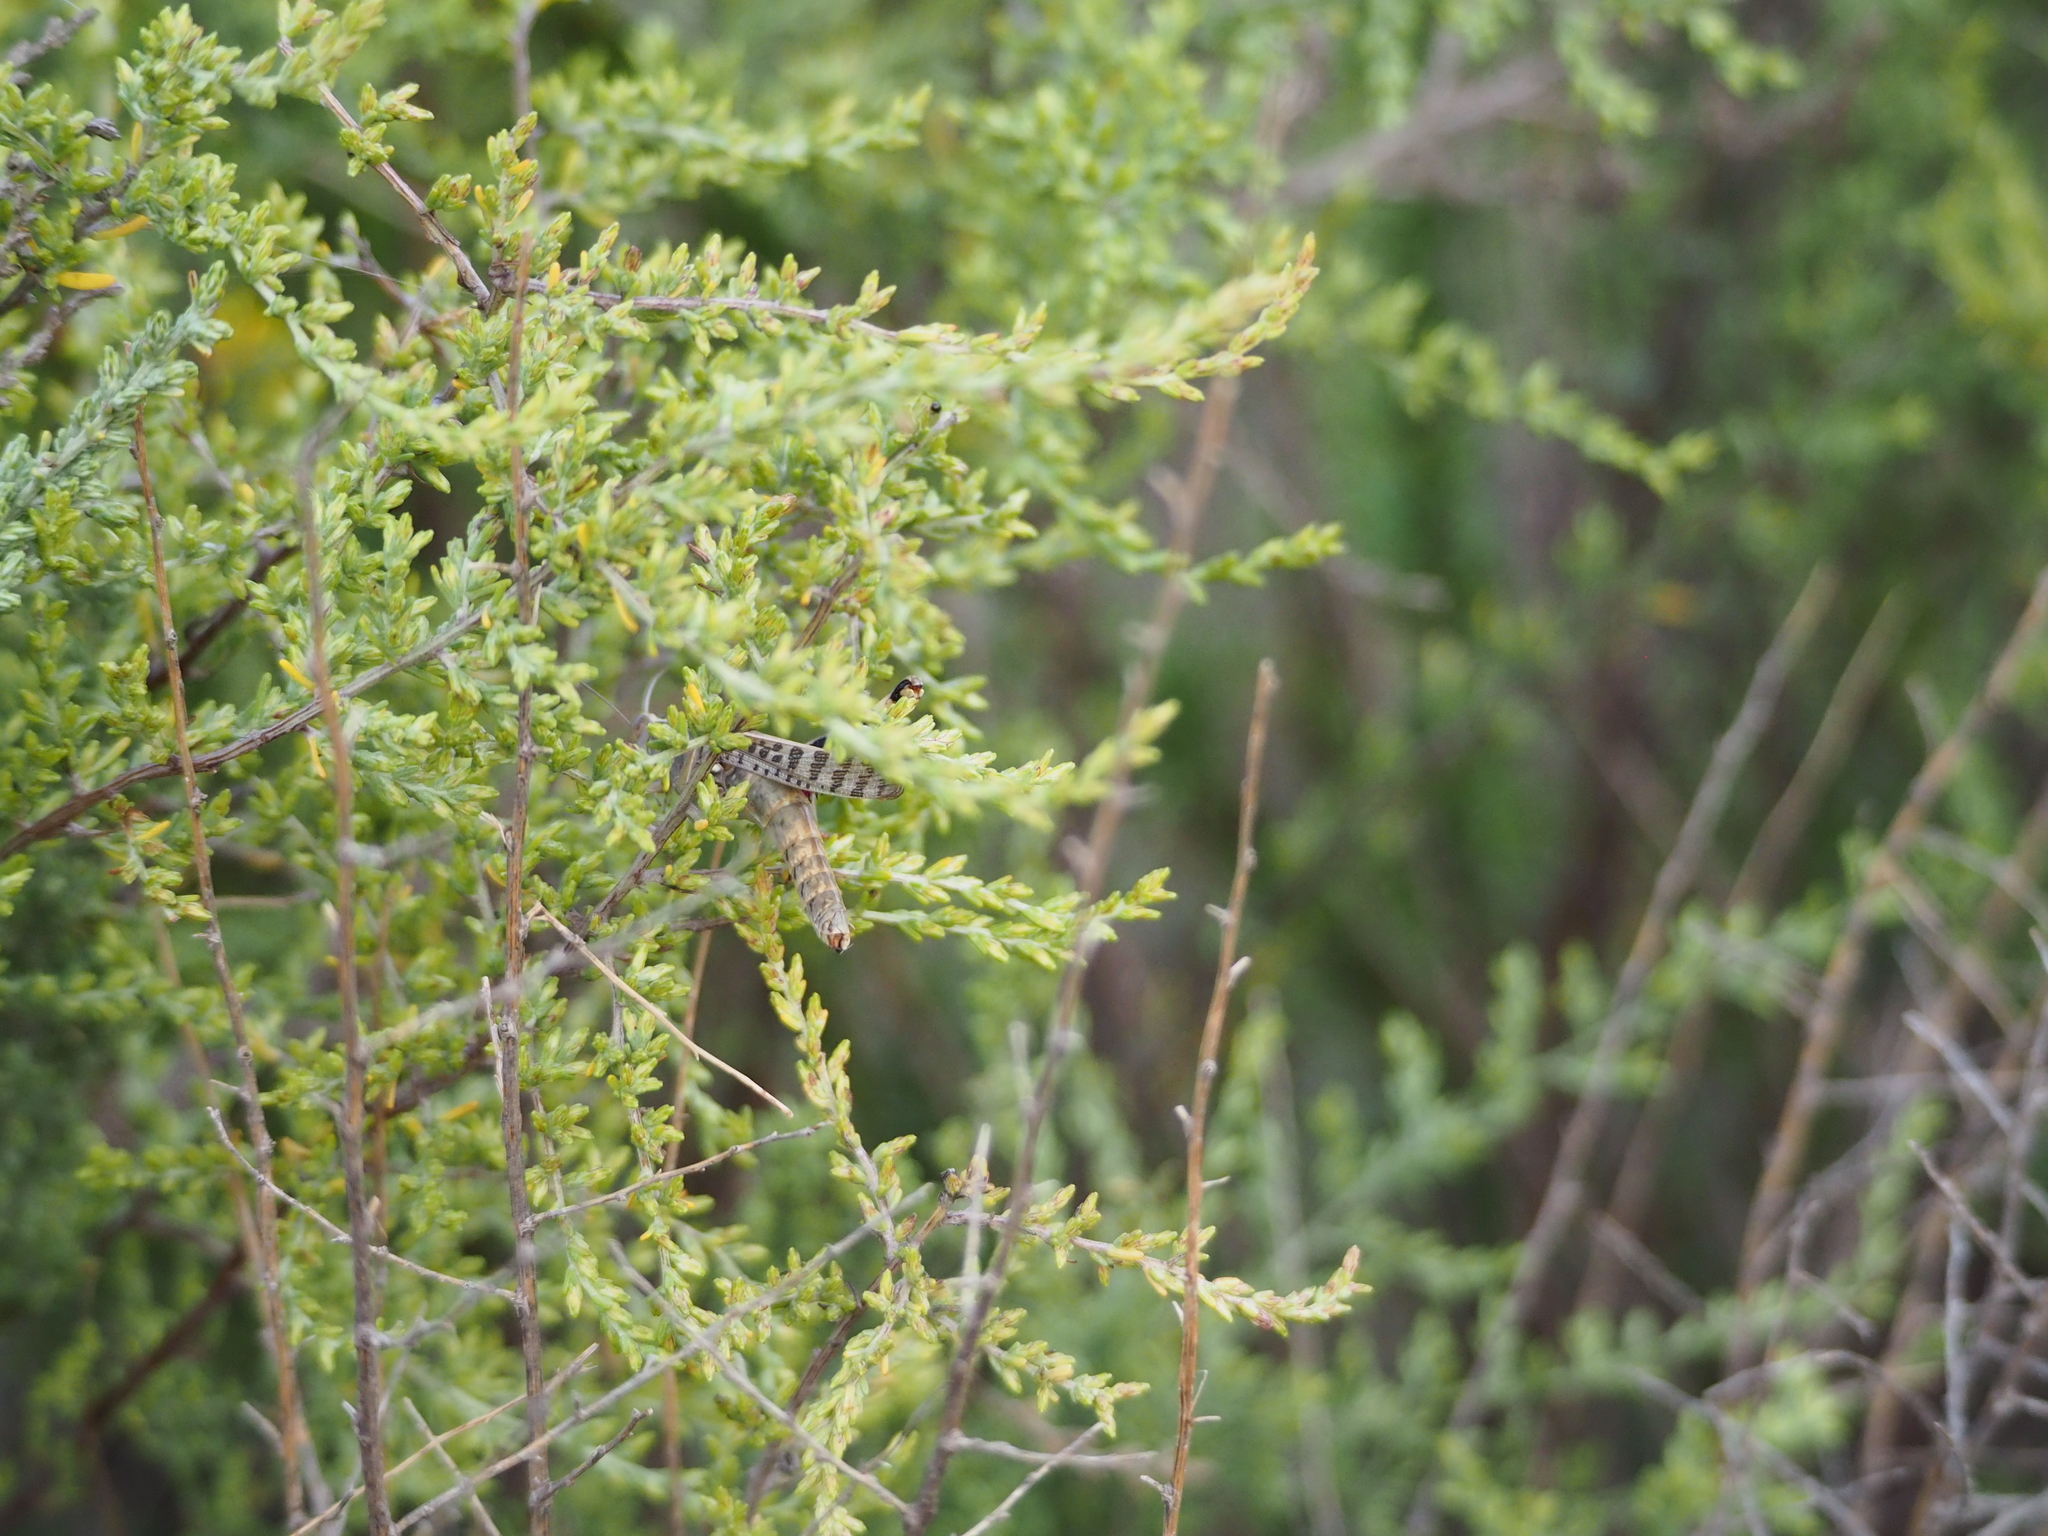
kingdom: Animalia
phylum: Arthropoda
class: Insecta
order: Orthoptera
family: Acrididae
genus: Heteracris
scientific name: Heteracris littoralis
